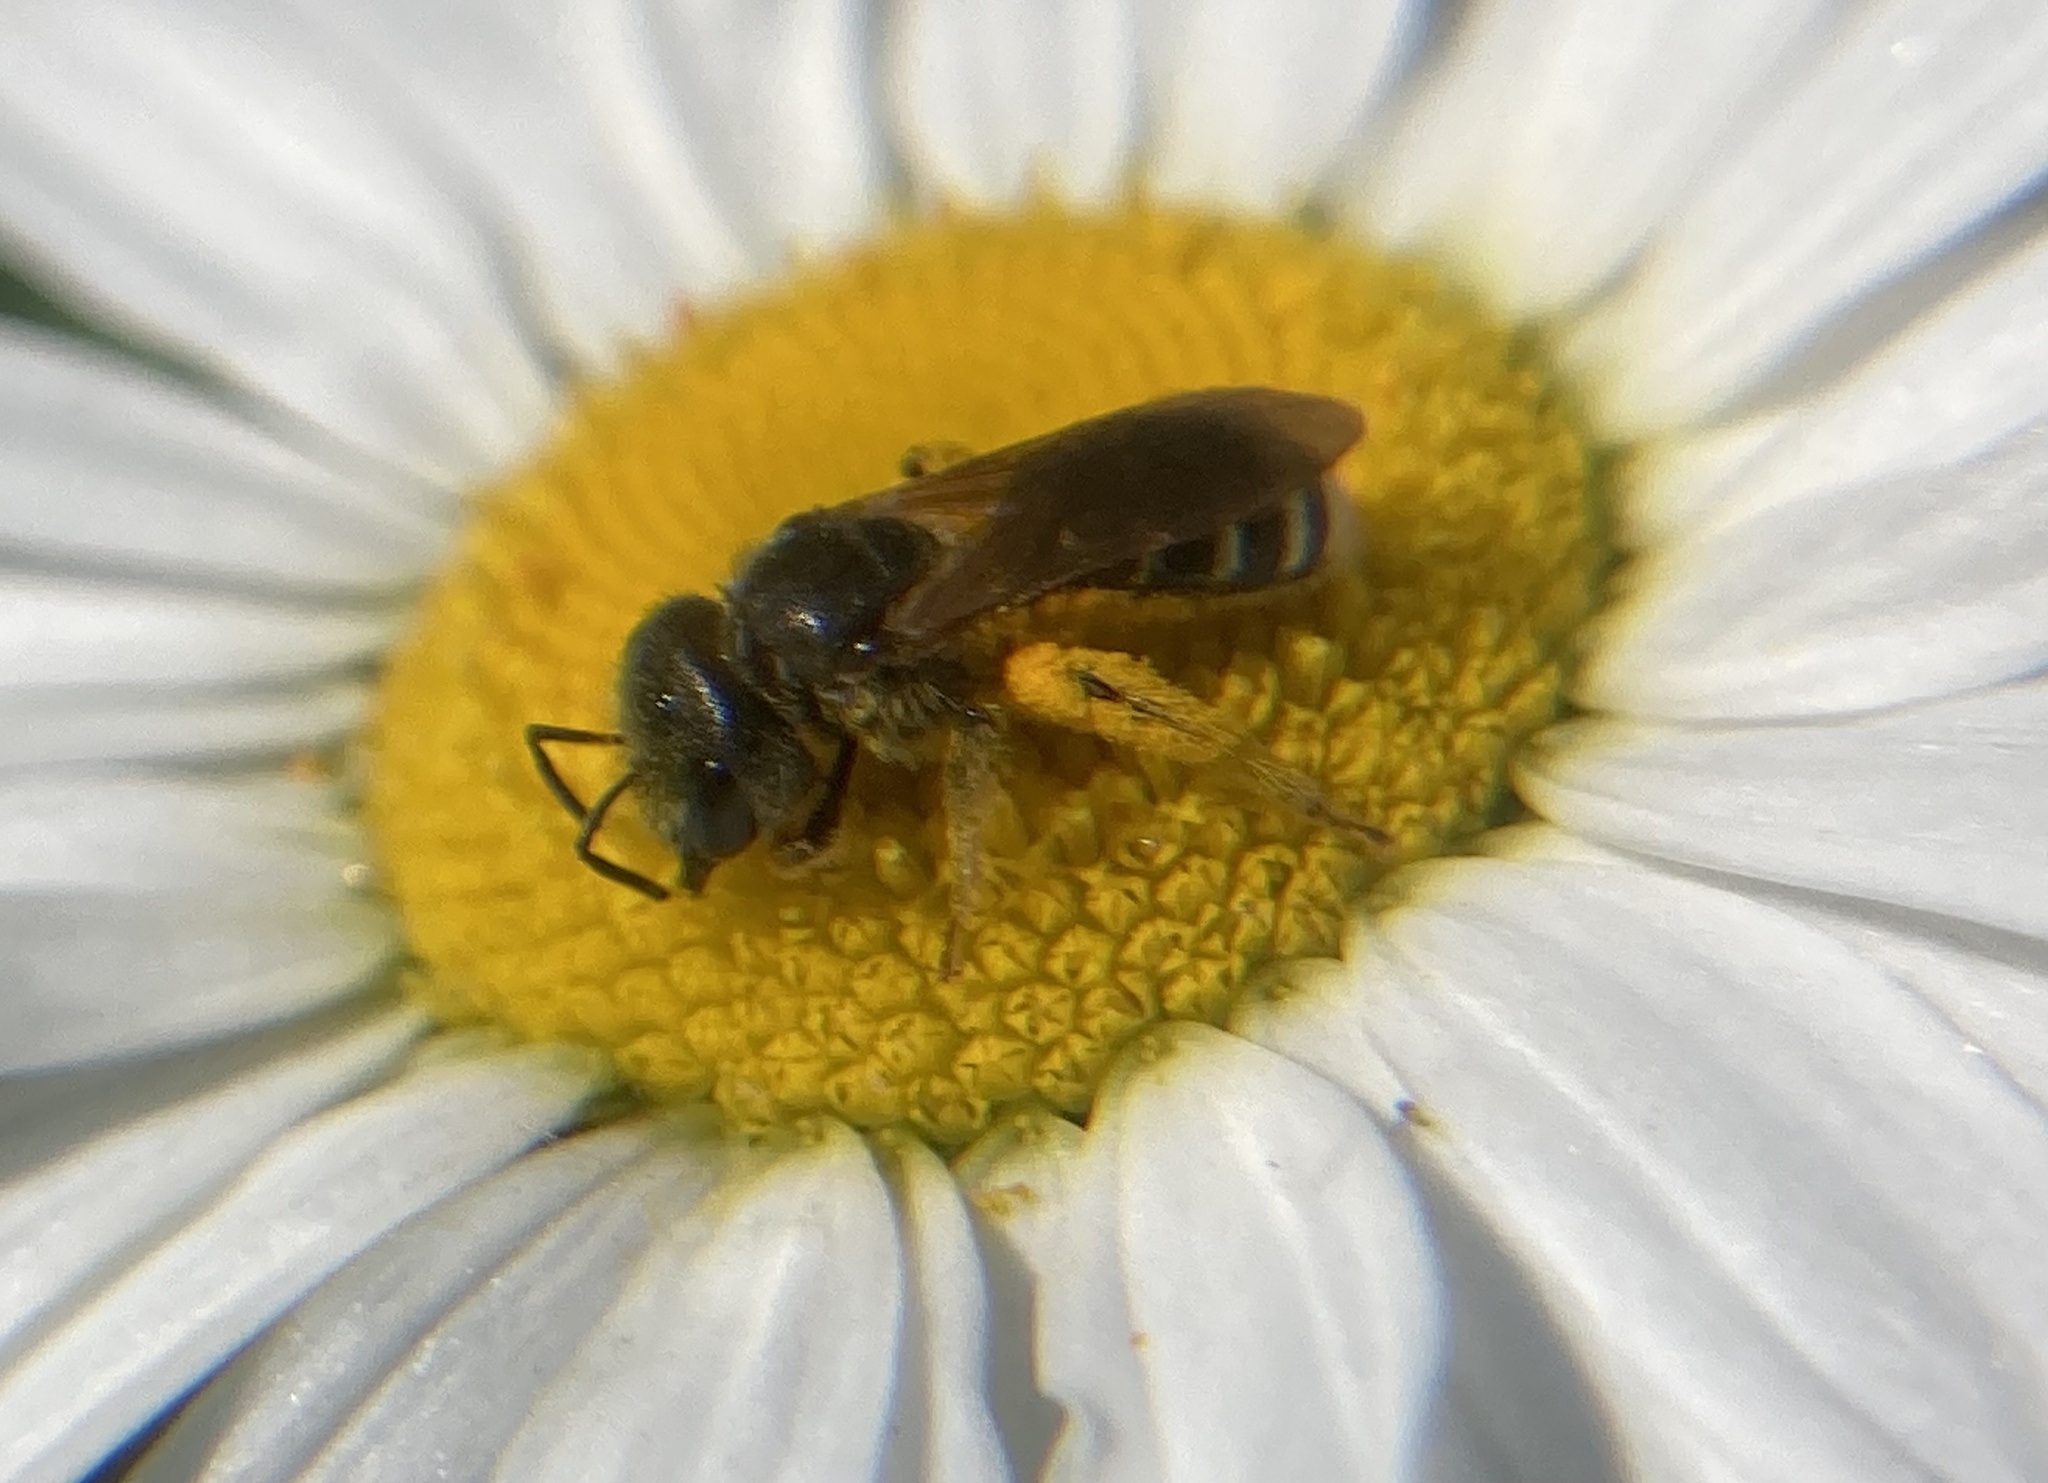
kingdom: Animalia
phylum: Arthropoda
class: Insecta
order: Hymenoptera
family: Halictidae
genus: Halictus
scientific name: Halictus ligatus
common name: Ligated furrow bee
